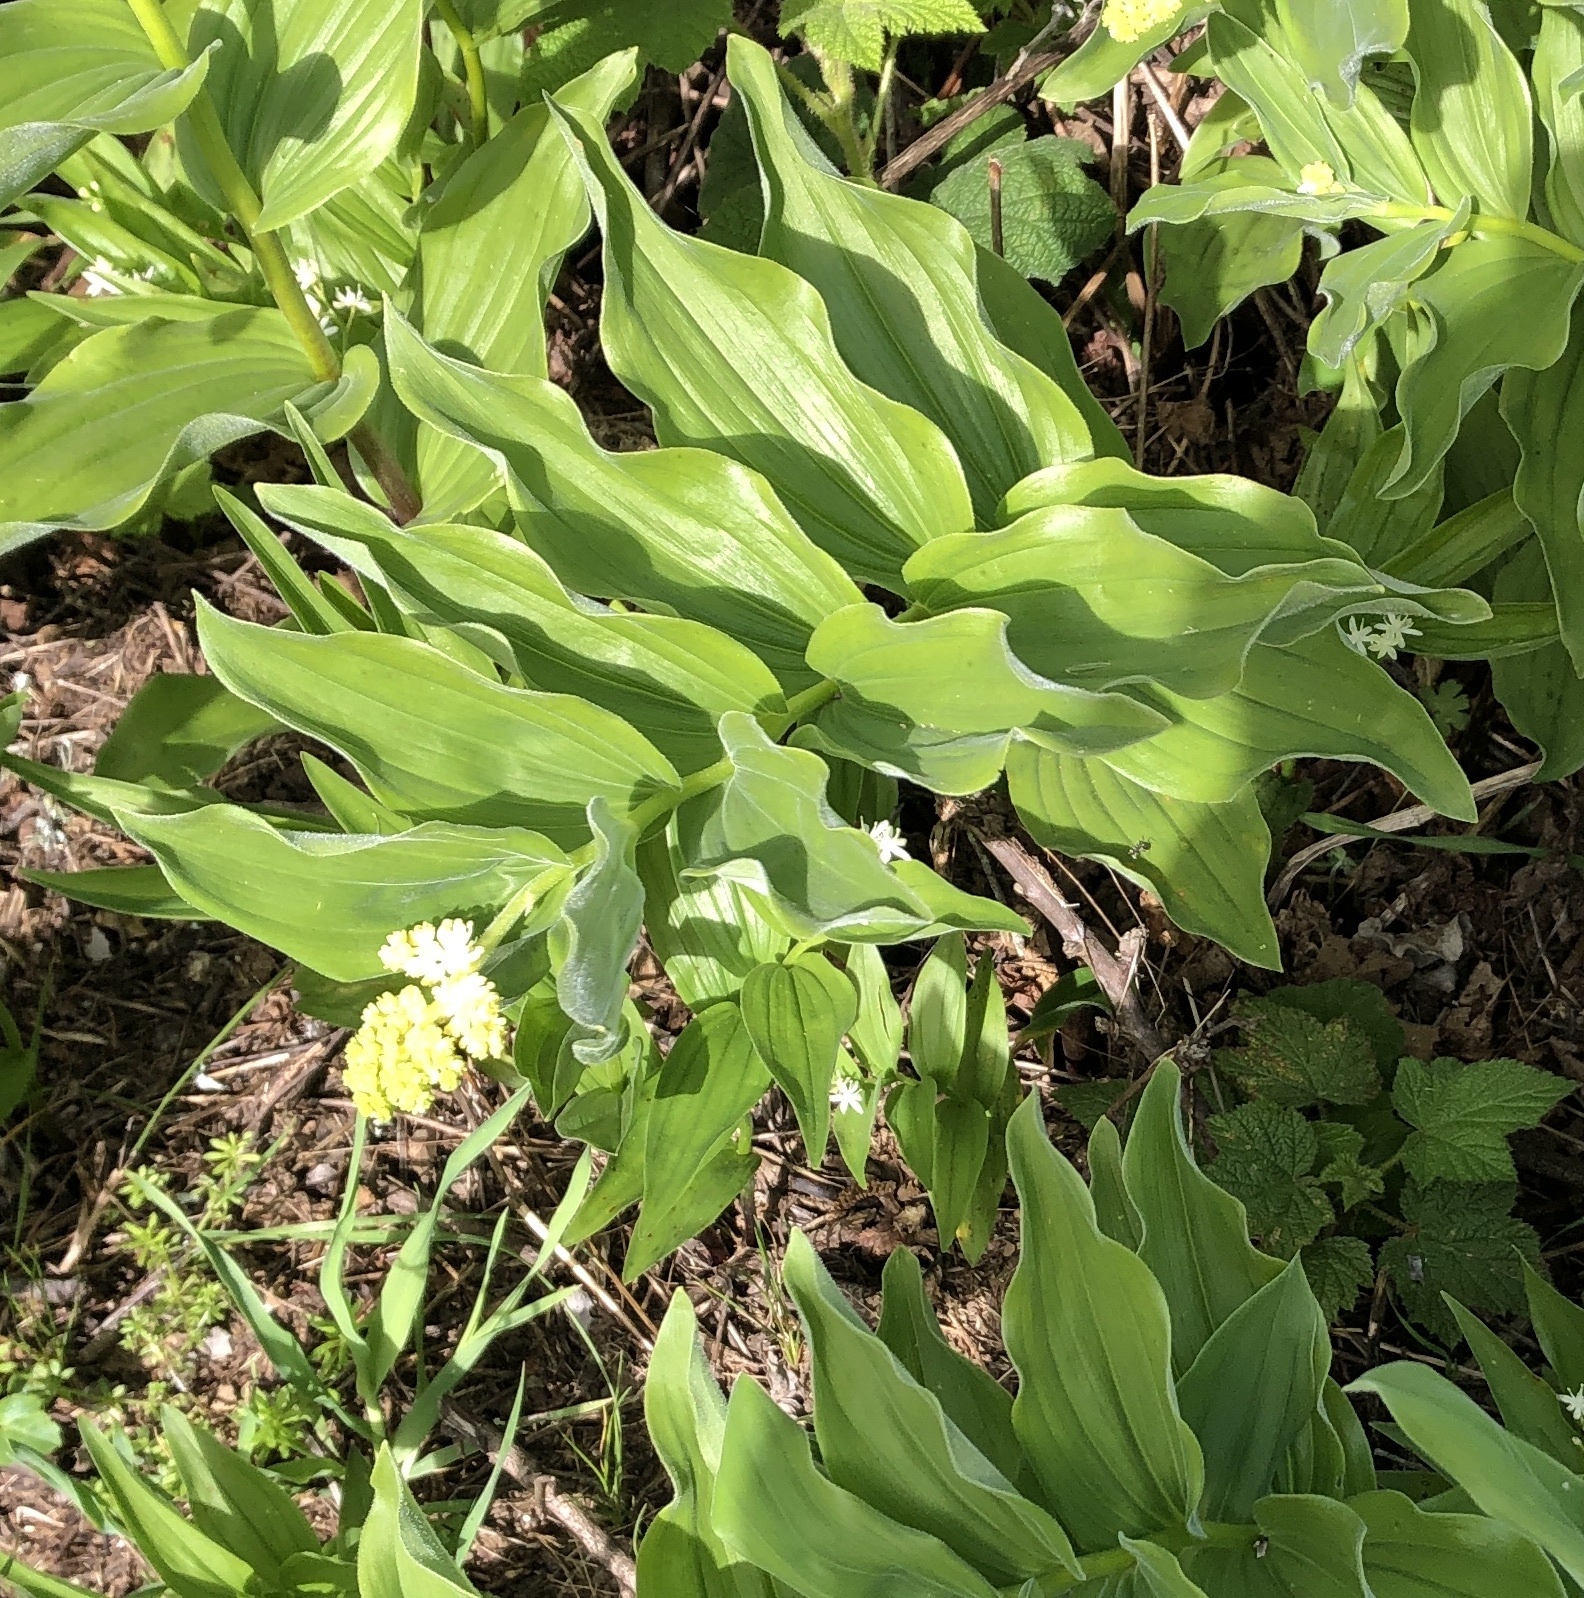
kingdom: Plantae
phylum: Tracheophyta
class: Liliopsida
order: Asparagales
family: Asparagaceae
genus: Maianthemum
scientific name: Maianthemum racemosum
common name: False spikenard
